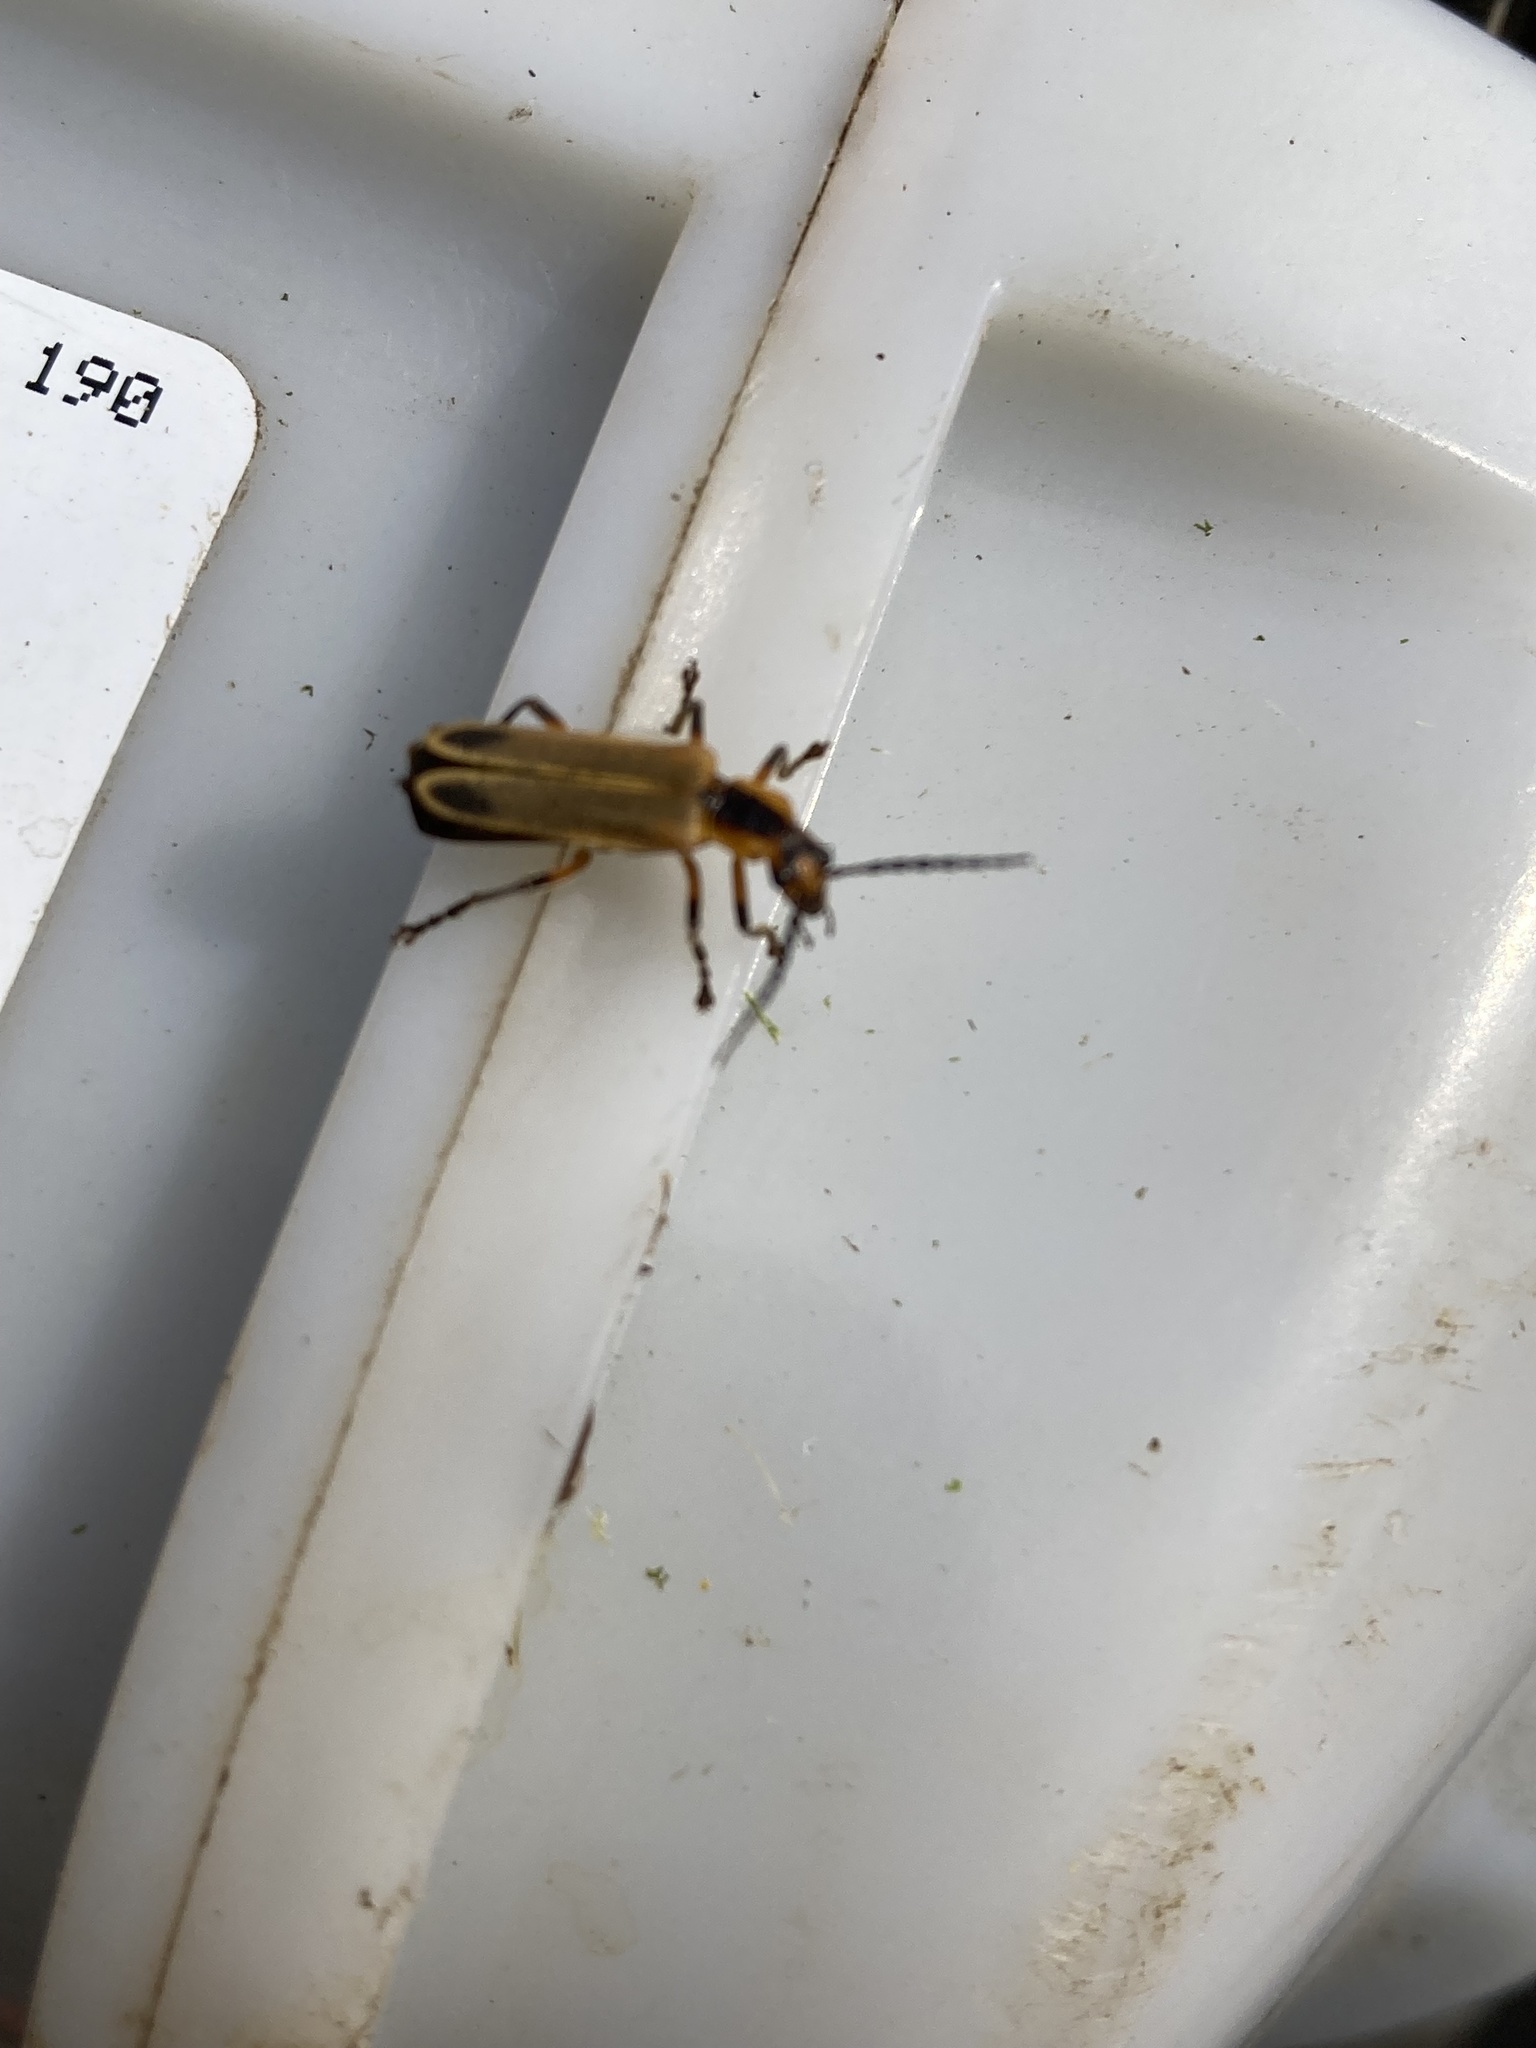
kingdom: Animalia
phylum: Arthropoda
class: Insecta
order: Coleoptera
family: Cantharidae
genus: Chauliognathus
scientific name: Chauliognathus marginatus
